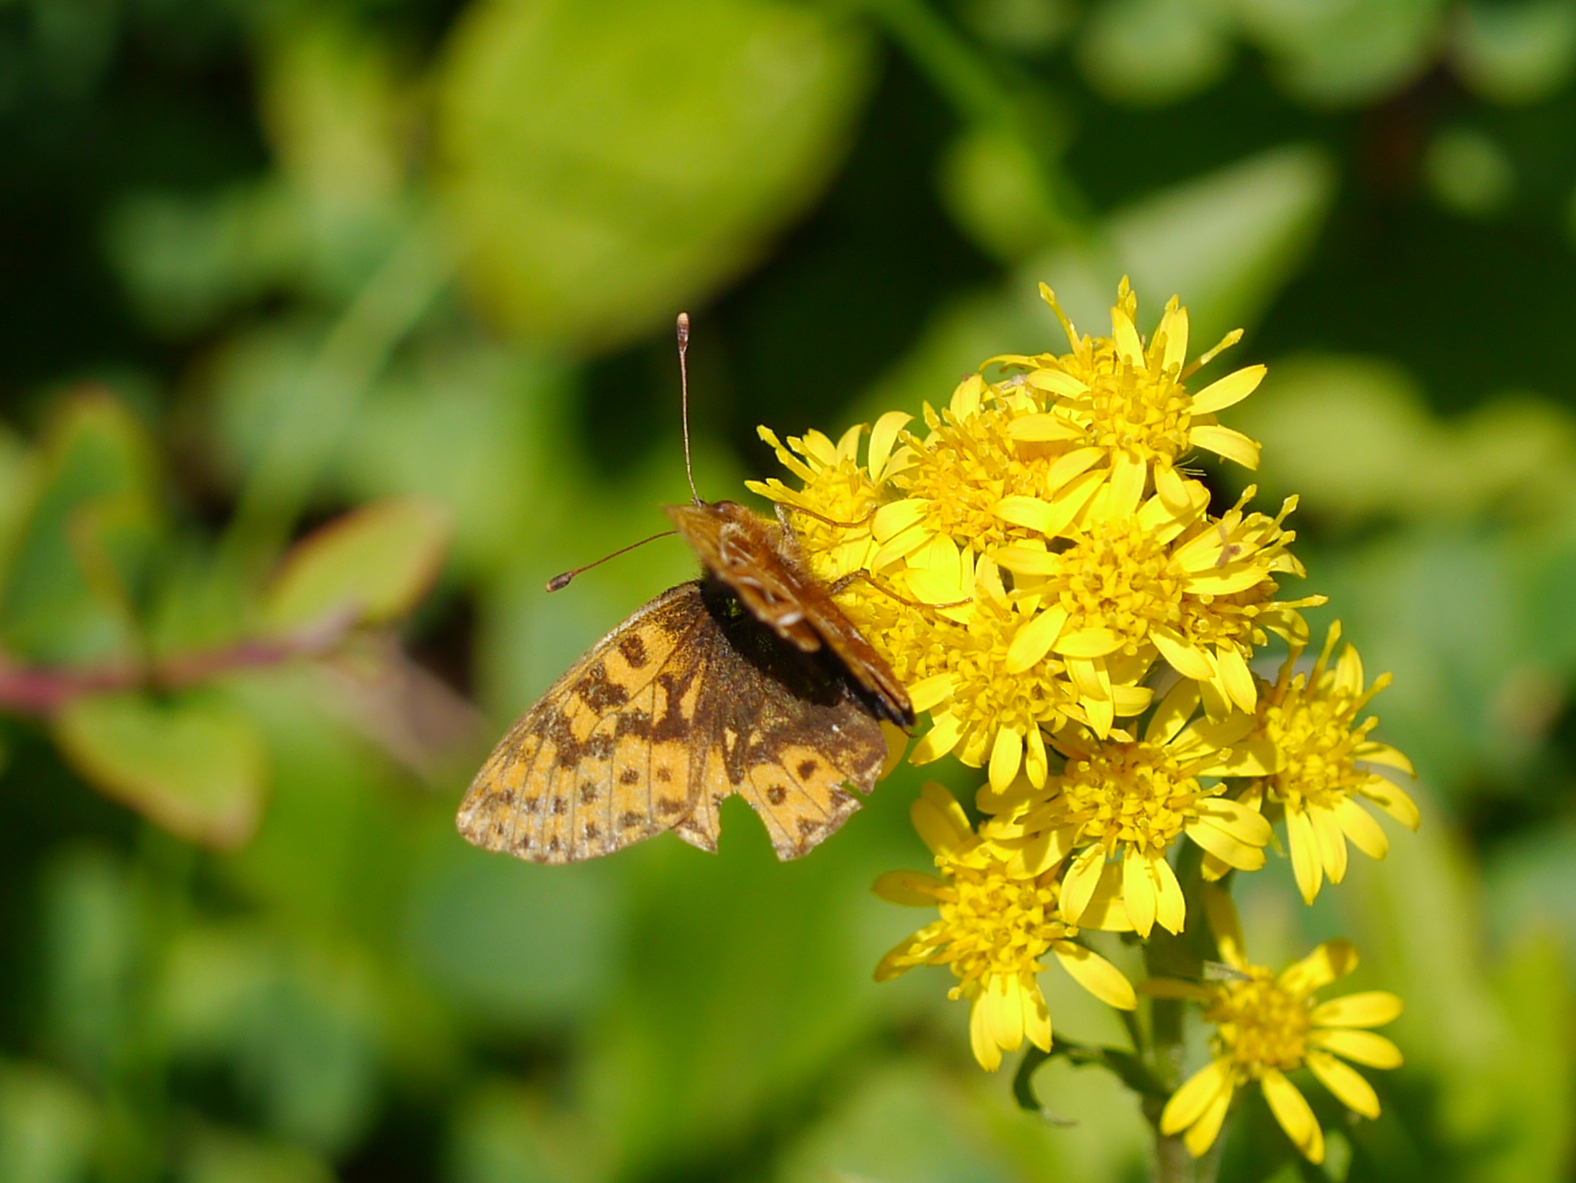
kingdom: Animalia
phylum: Arthropoda
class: Insecta
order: Lepidoptera
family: Nymphalidae
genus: Boloria
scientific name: Boloria chariclea
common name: Arctic fritillary
